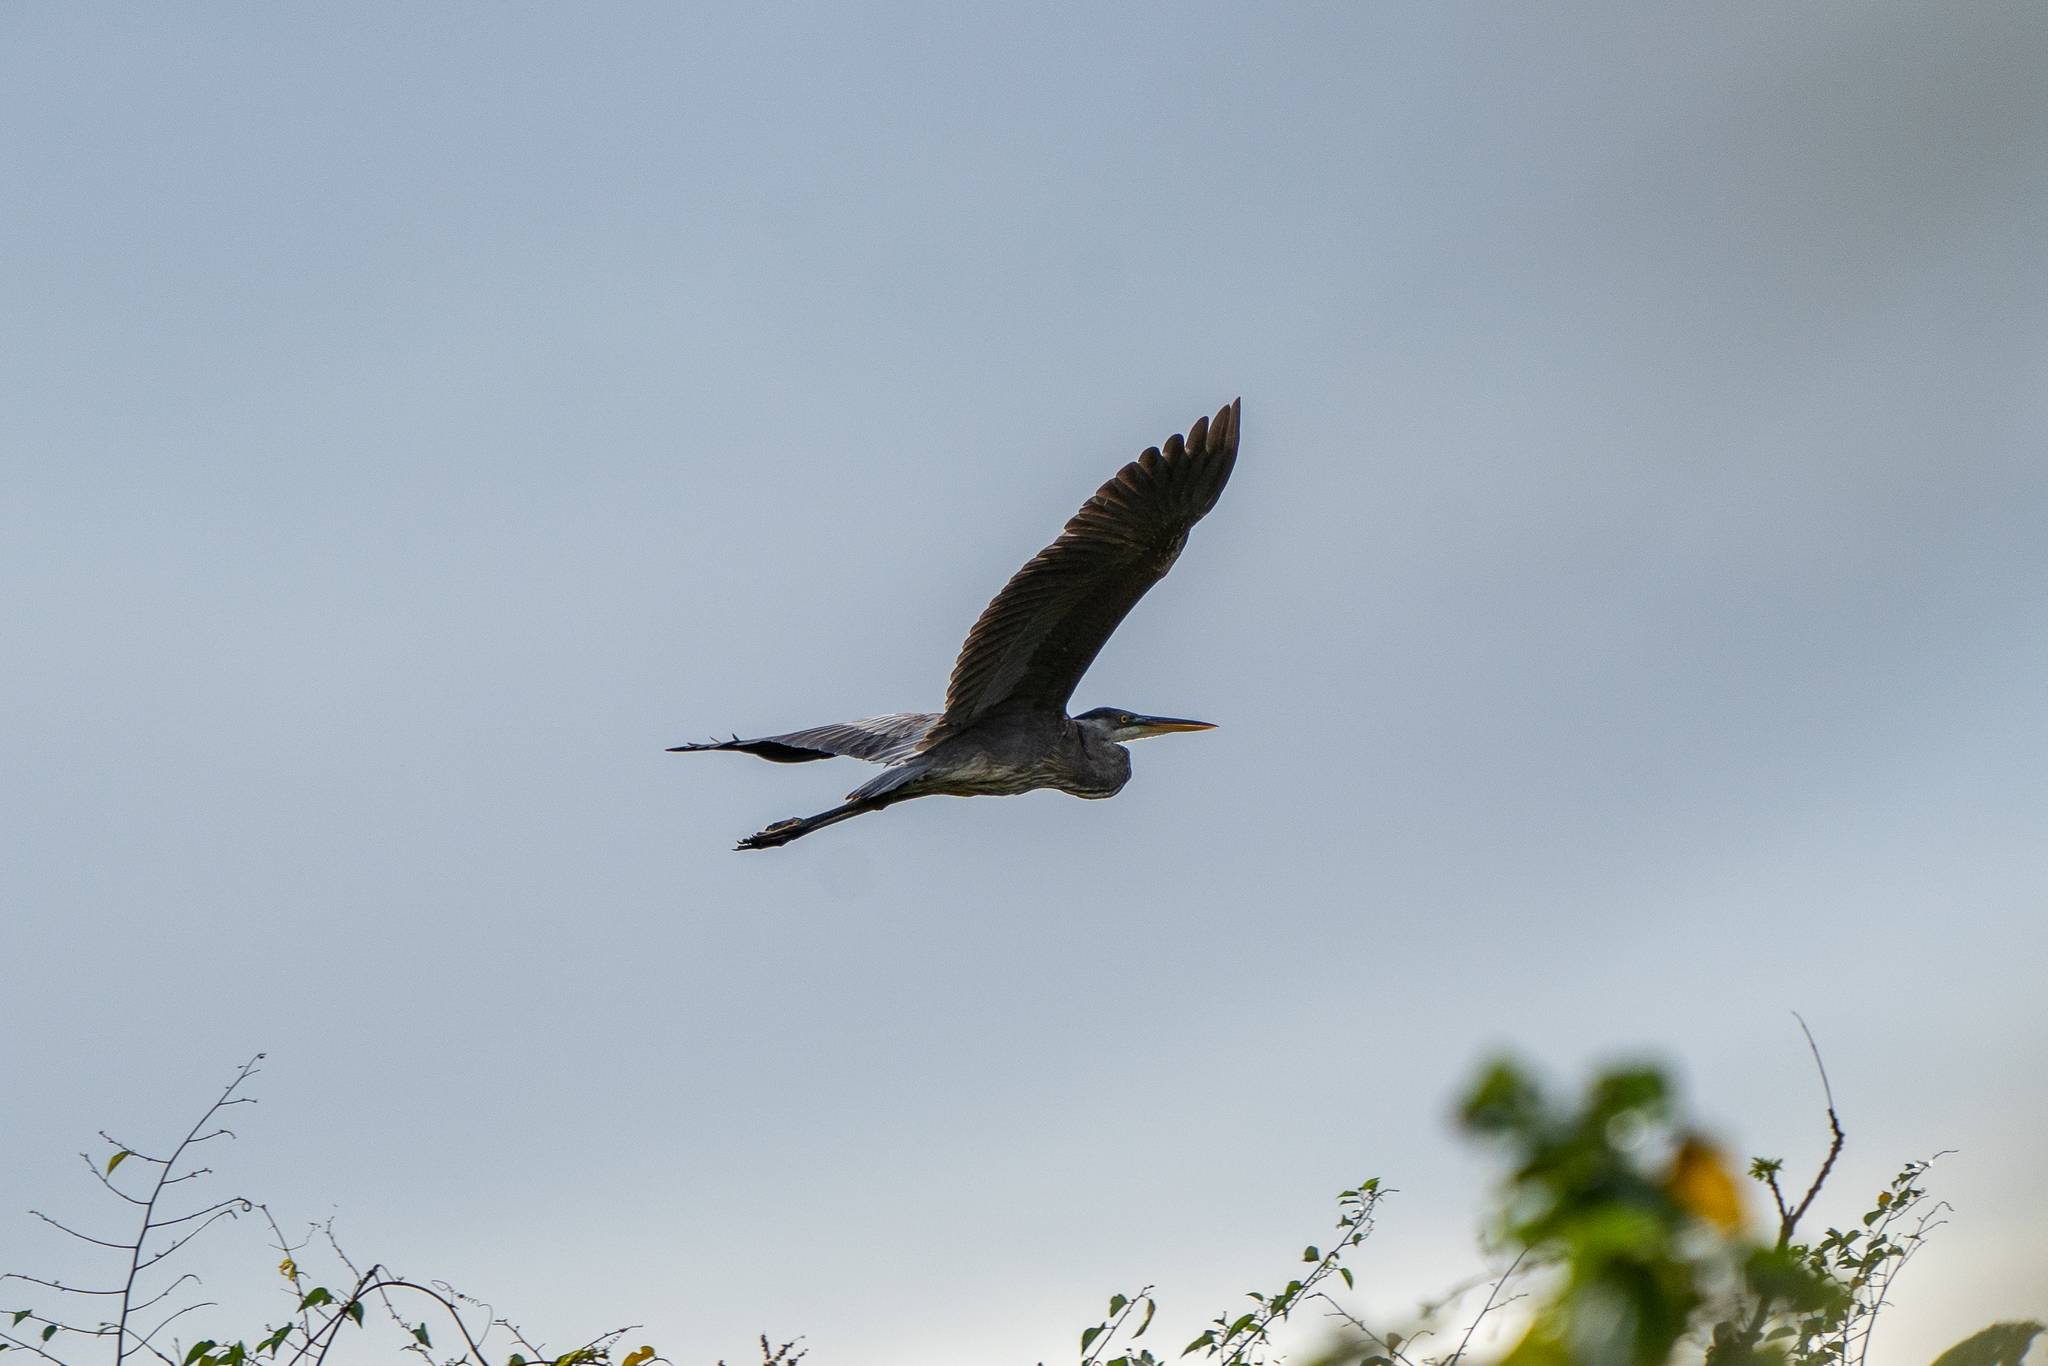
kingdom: Animalia
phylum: Chordata
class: Aves
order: Pelecaniformes
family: Ardeidae
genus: Ardea
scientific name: Ardea herodias
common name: Great blue heron
